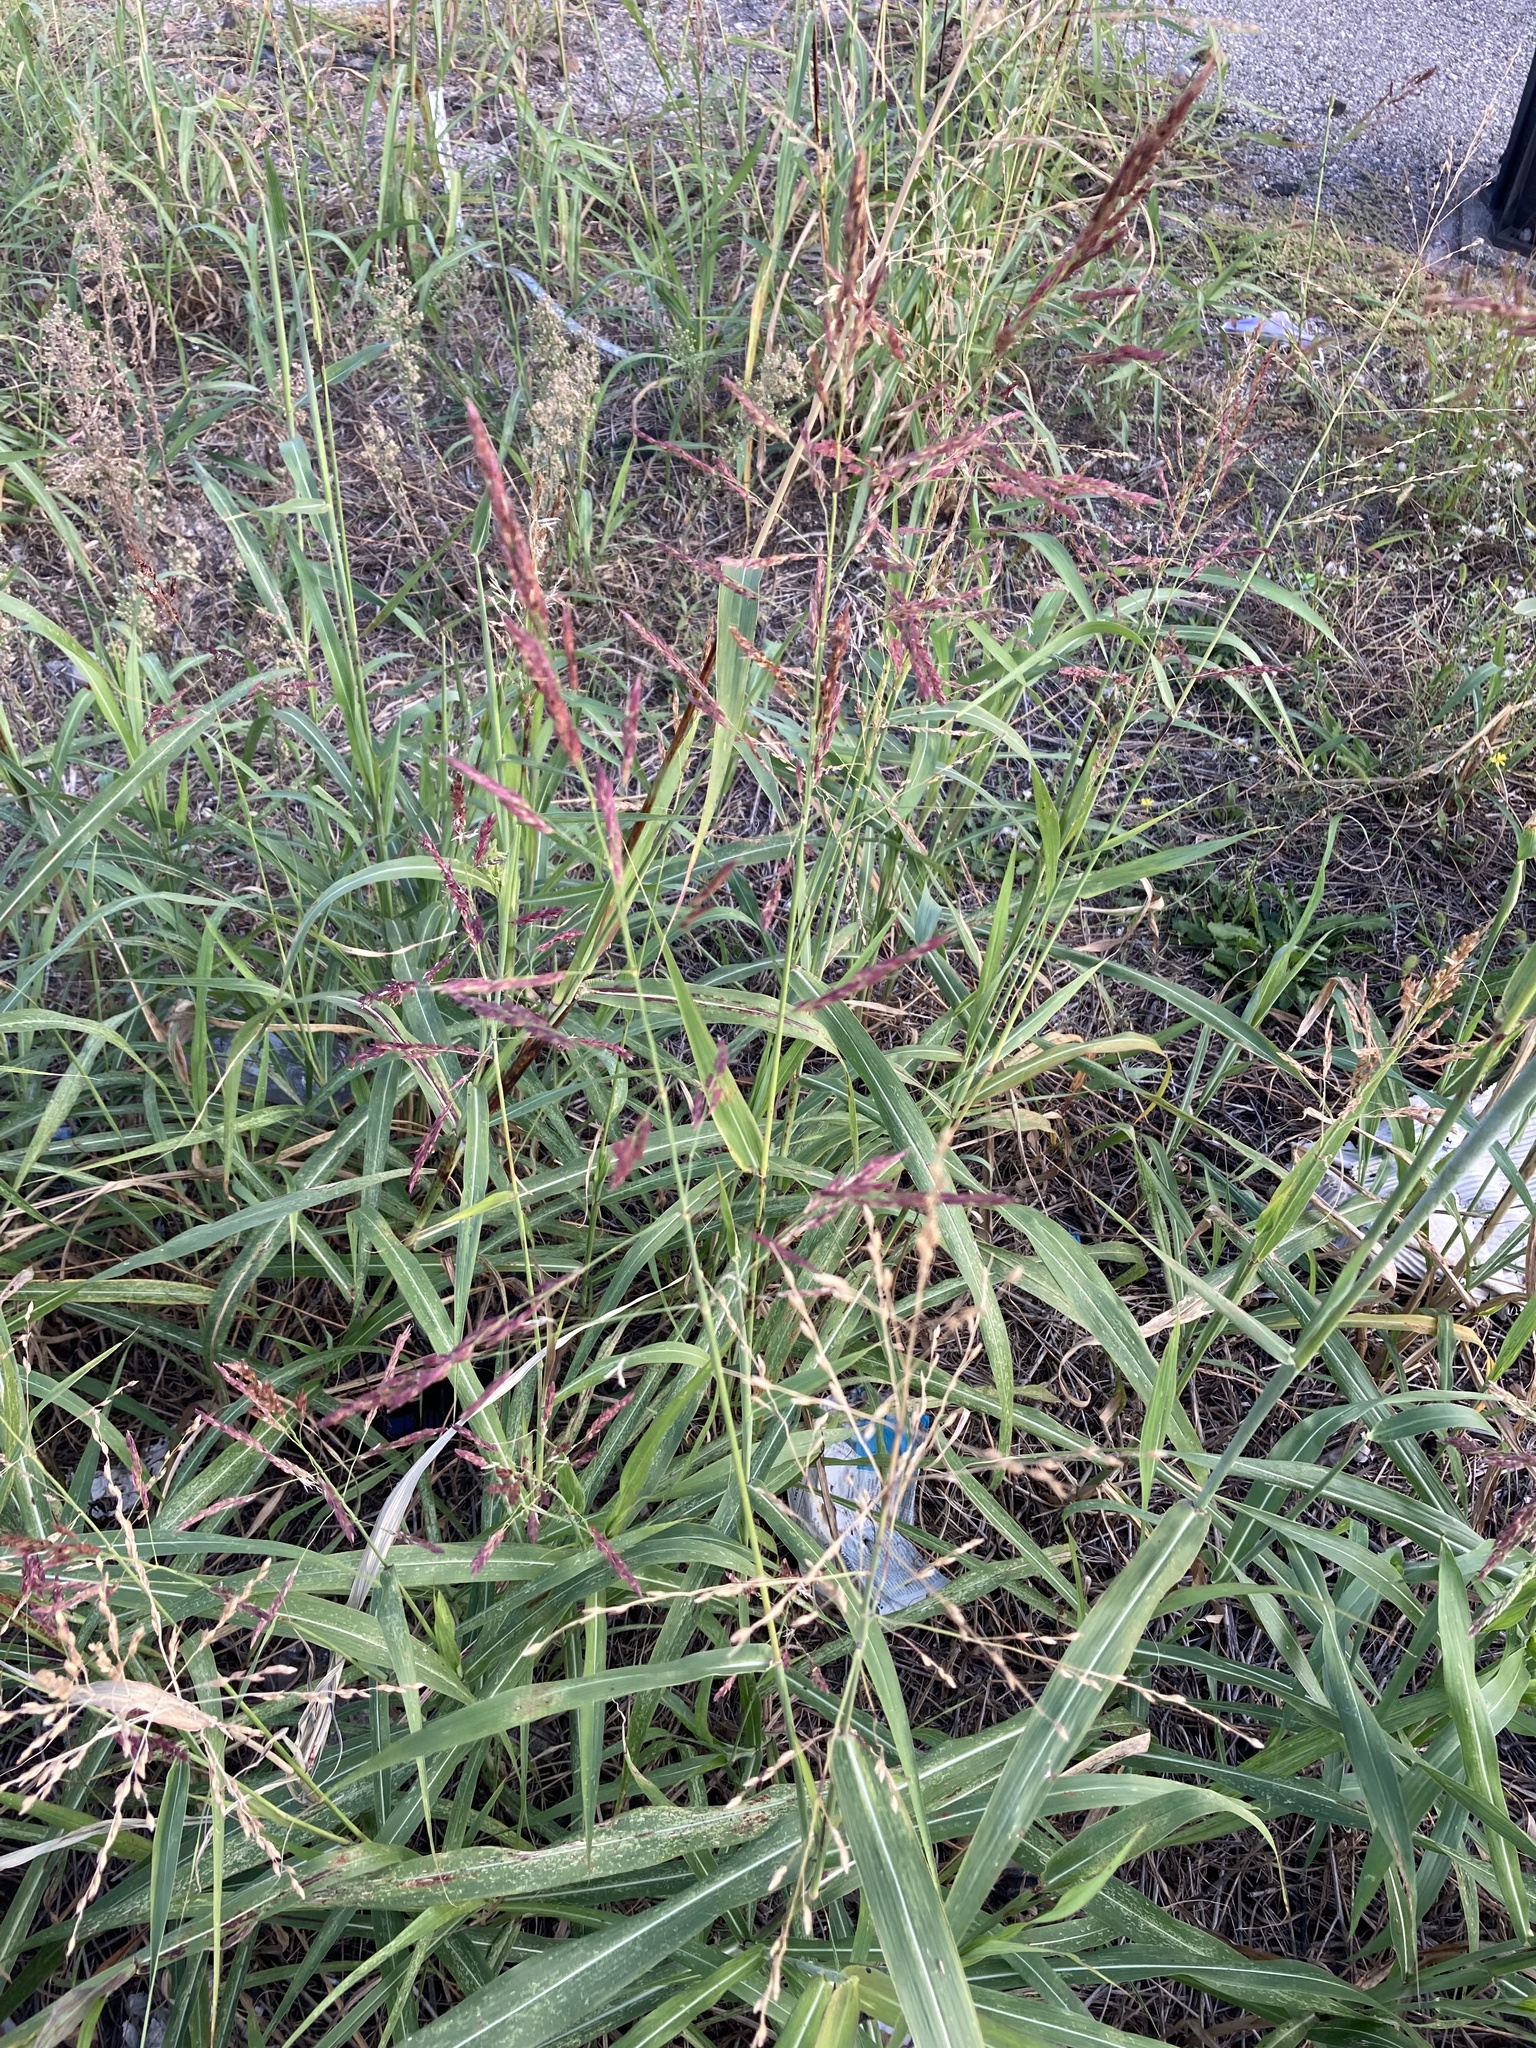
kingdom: Plantae
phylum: Tracheophyta
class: Liliopsida
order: Poales
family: Poaceae
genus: Sorghum
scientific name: Sorghum halepense
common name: Johnson-grass
